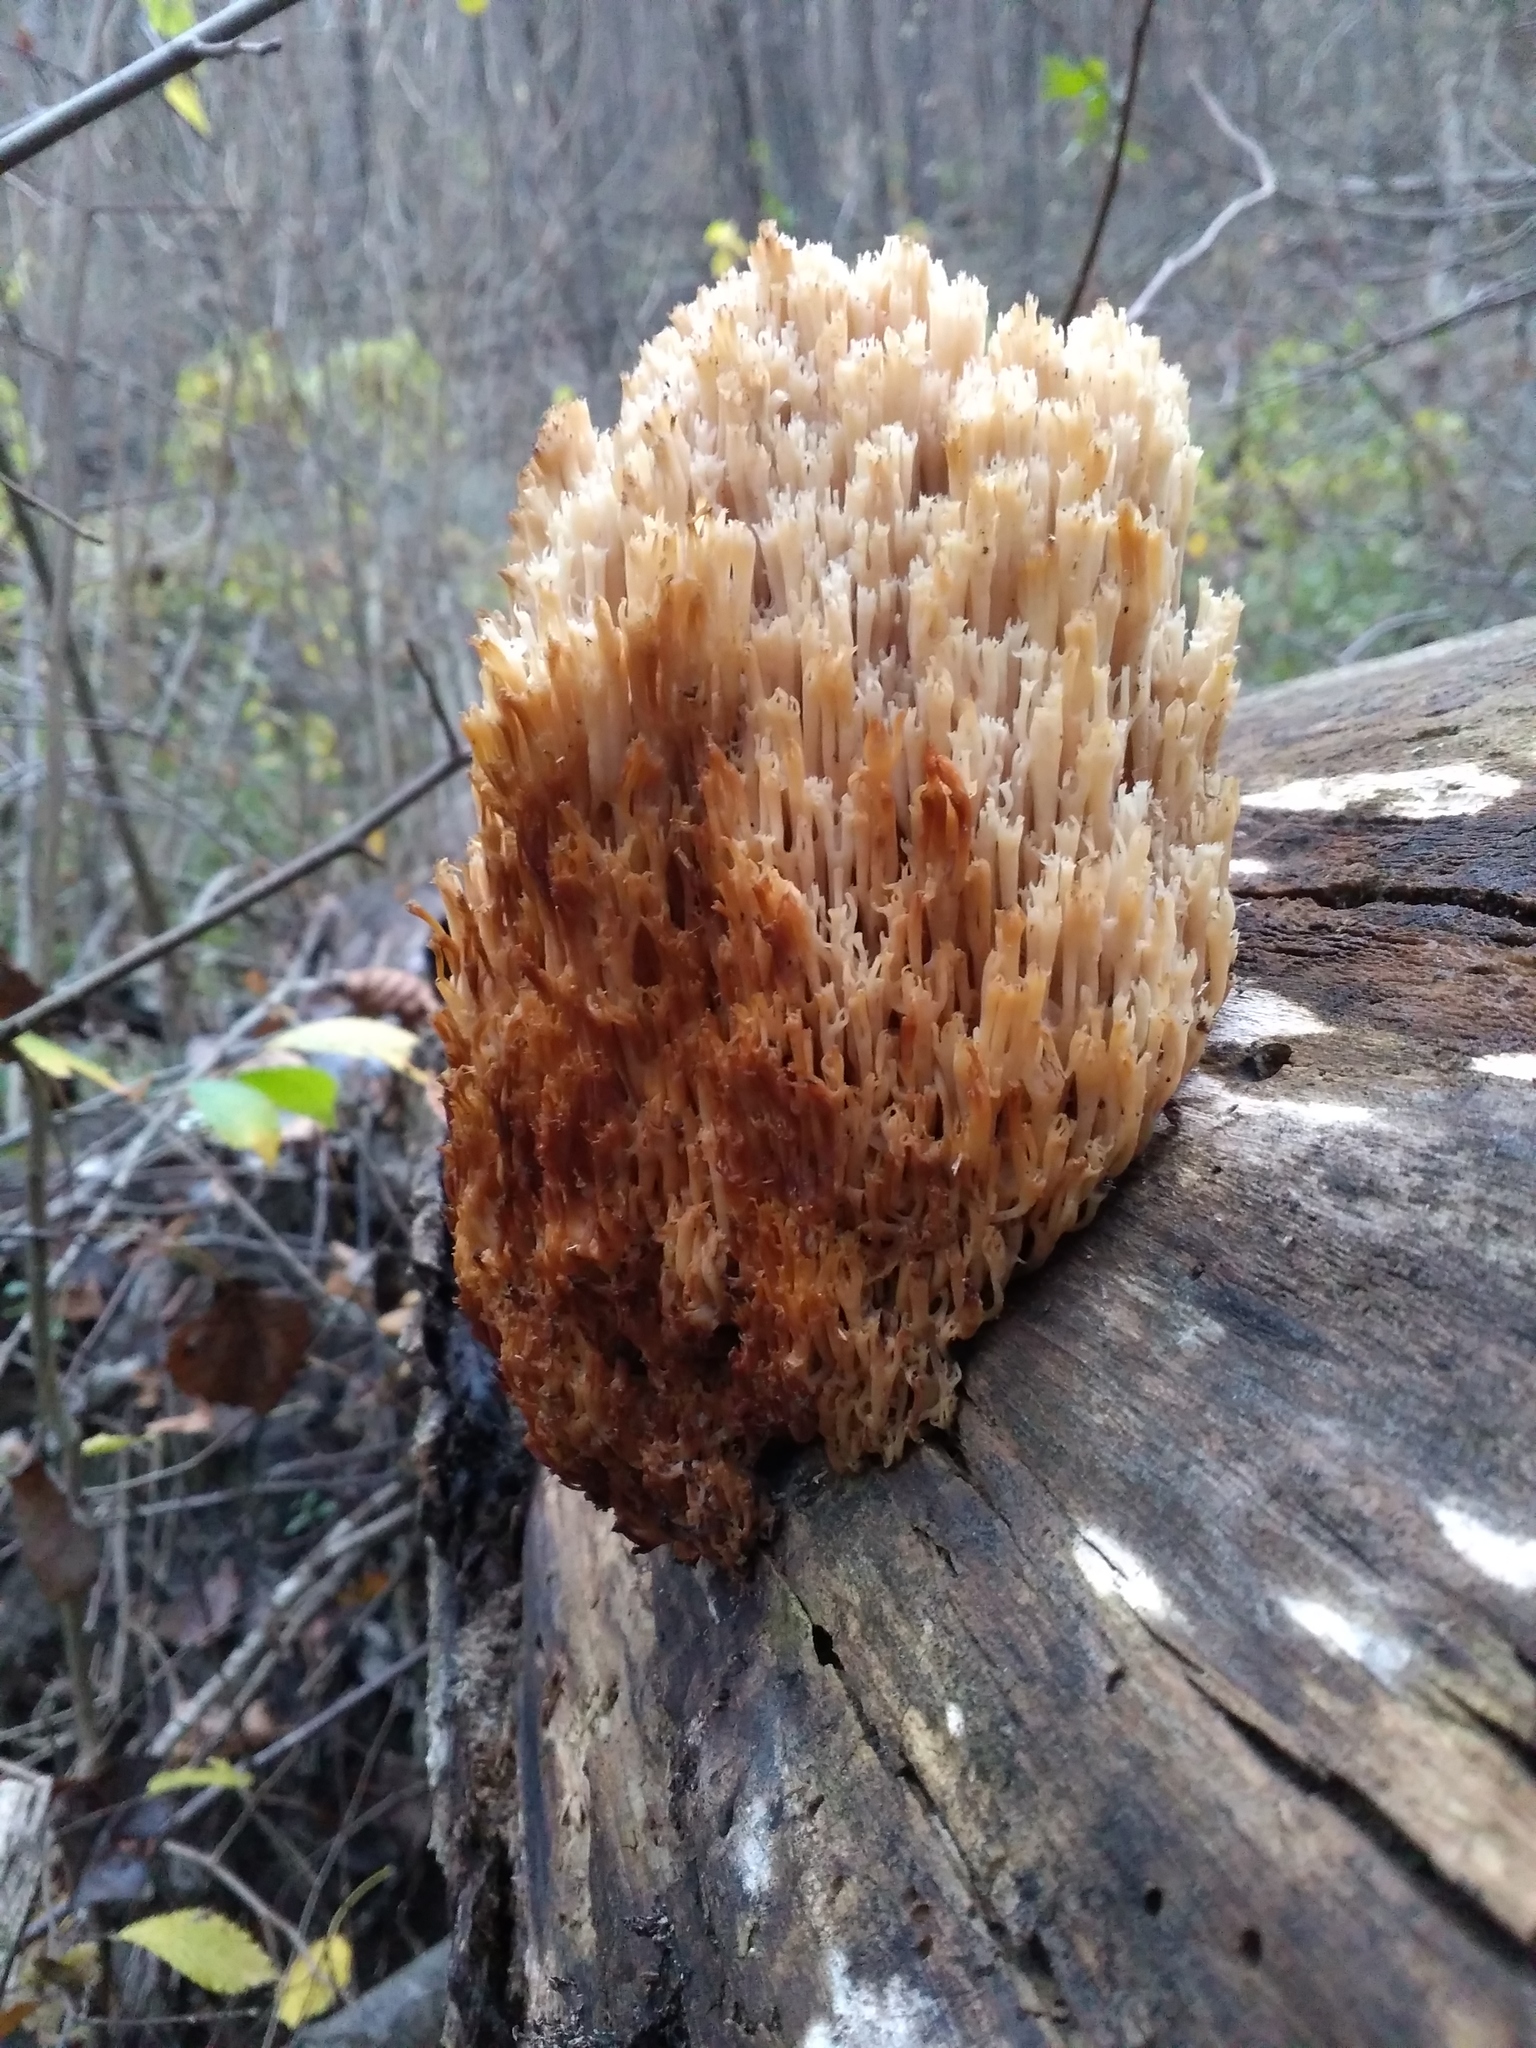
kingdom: Fungi
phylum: Basidiomycota
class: Agaricomycetes
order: Russulales
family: Auriscalpiaceae
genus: Artomyces
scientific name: Artomyces pyxidatus
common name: Crown-tipped coral fungus
